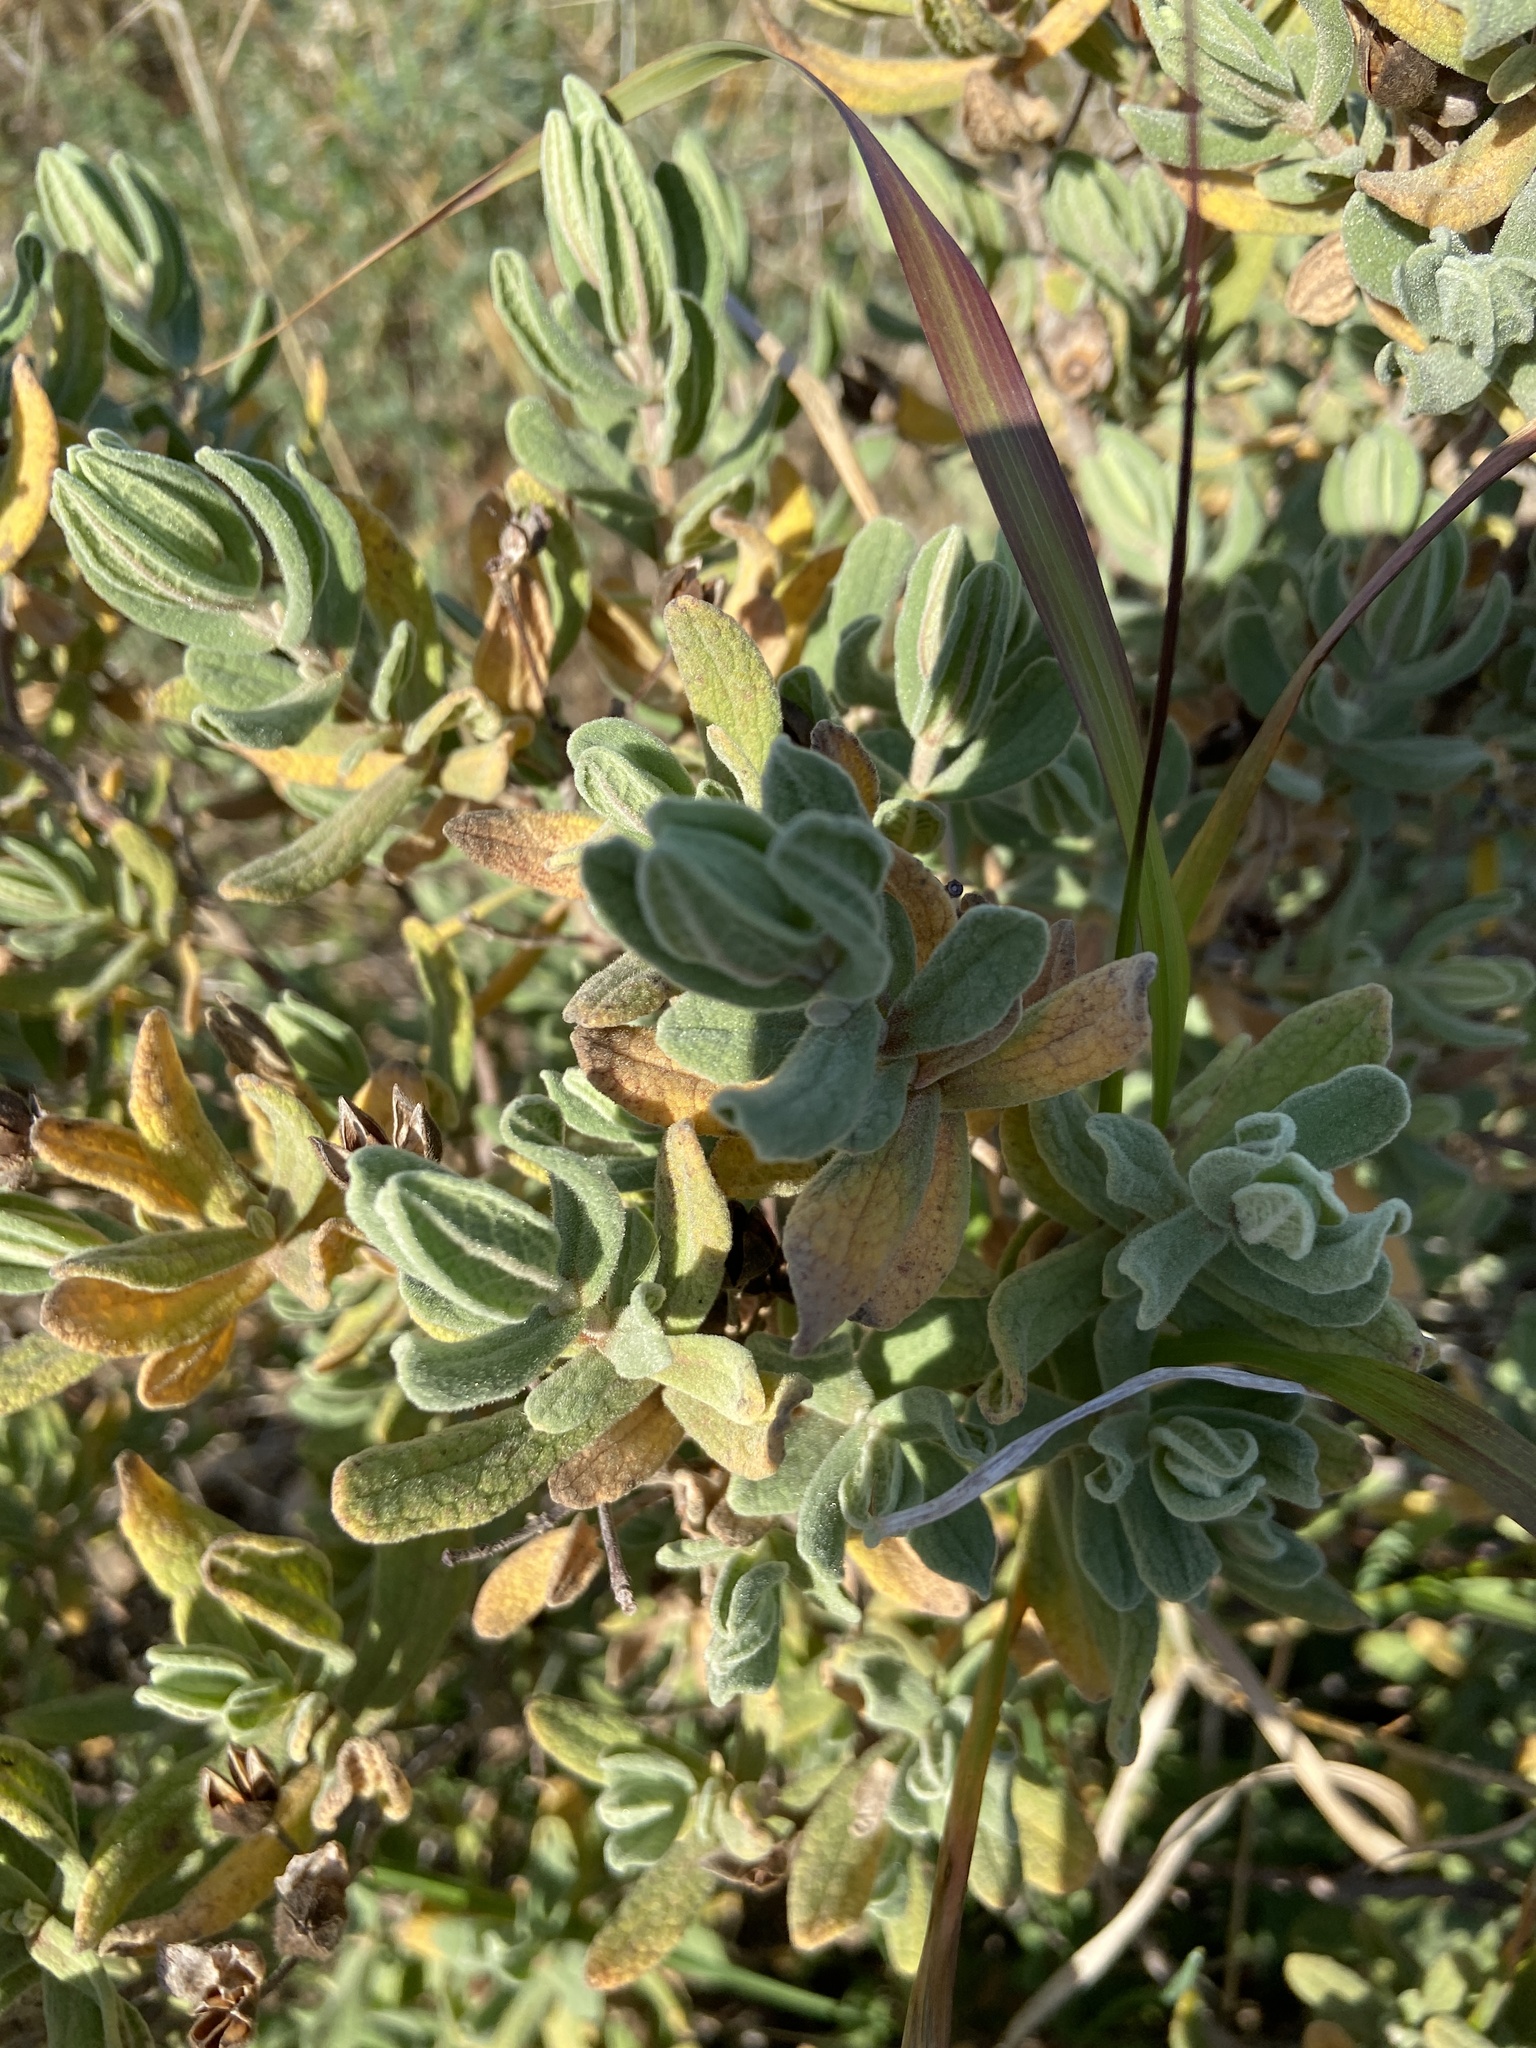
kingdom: Plantae
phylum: Tracheophyta
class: Magnoliopsida
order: Malvales
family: Cistaceae
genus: Cistus
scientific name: Cistus albidus
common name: White-leaf rock-rose
